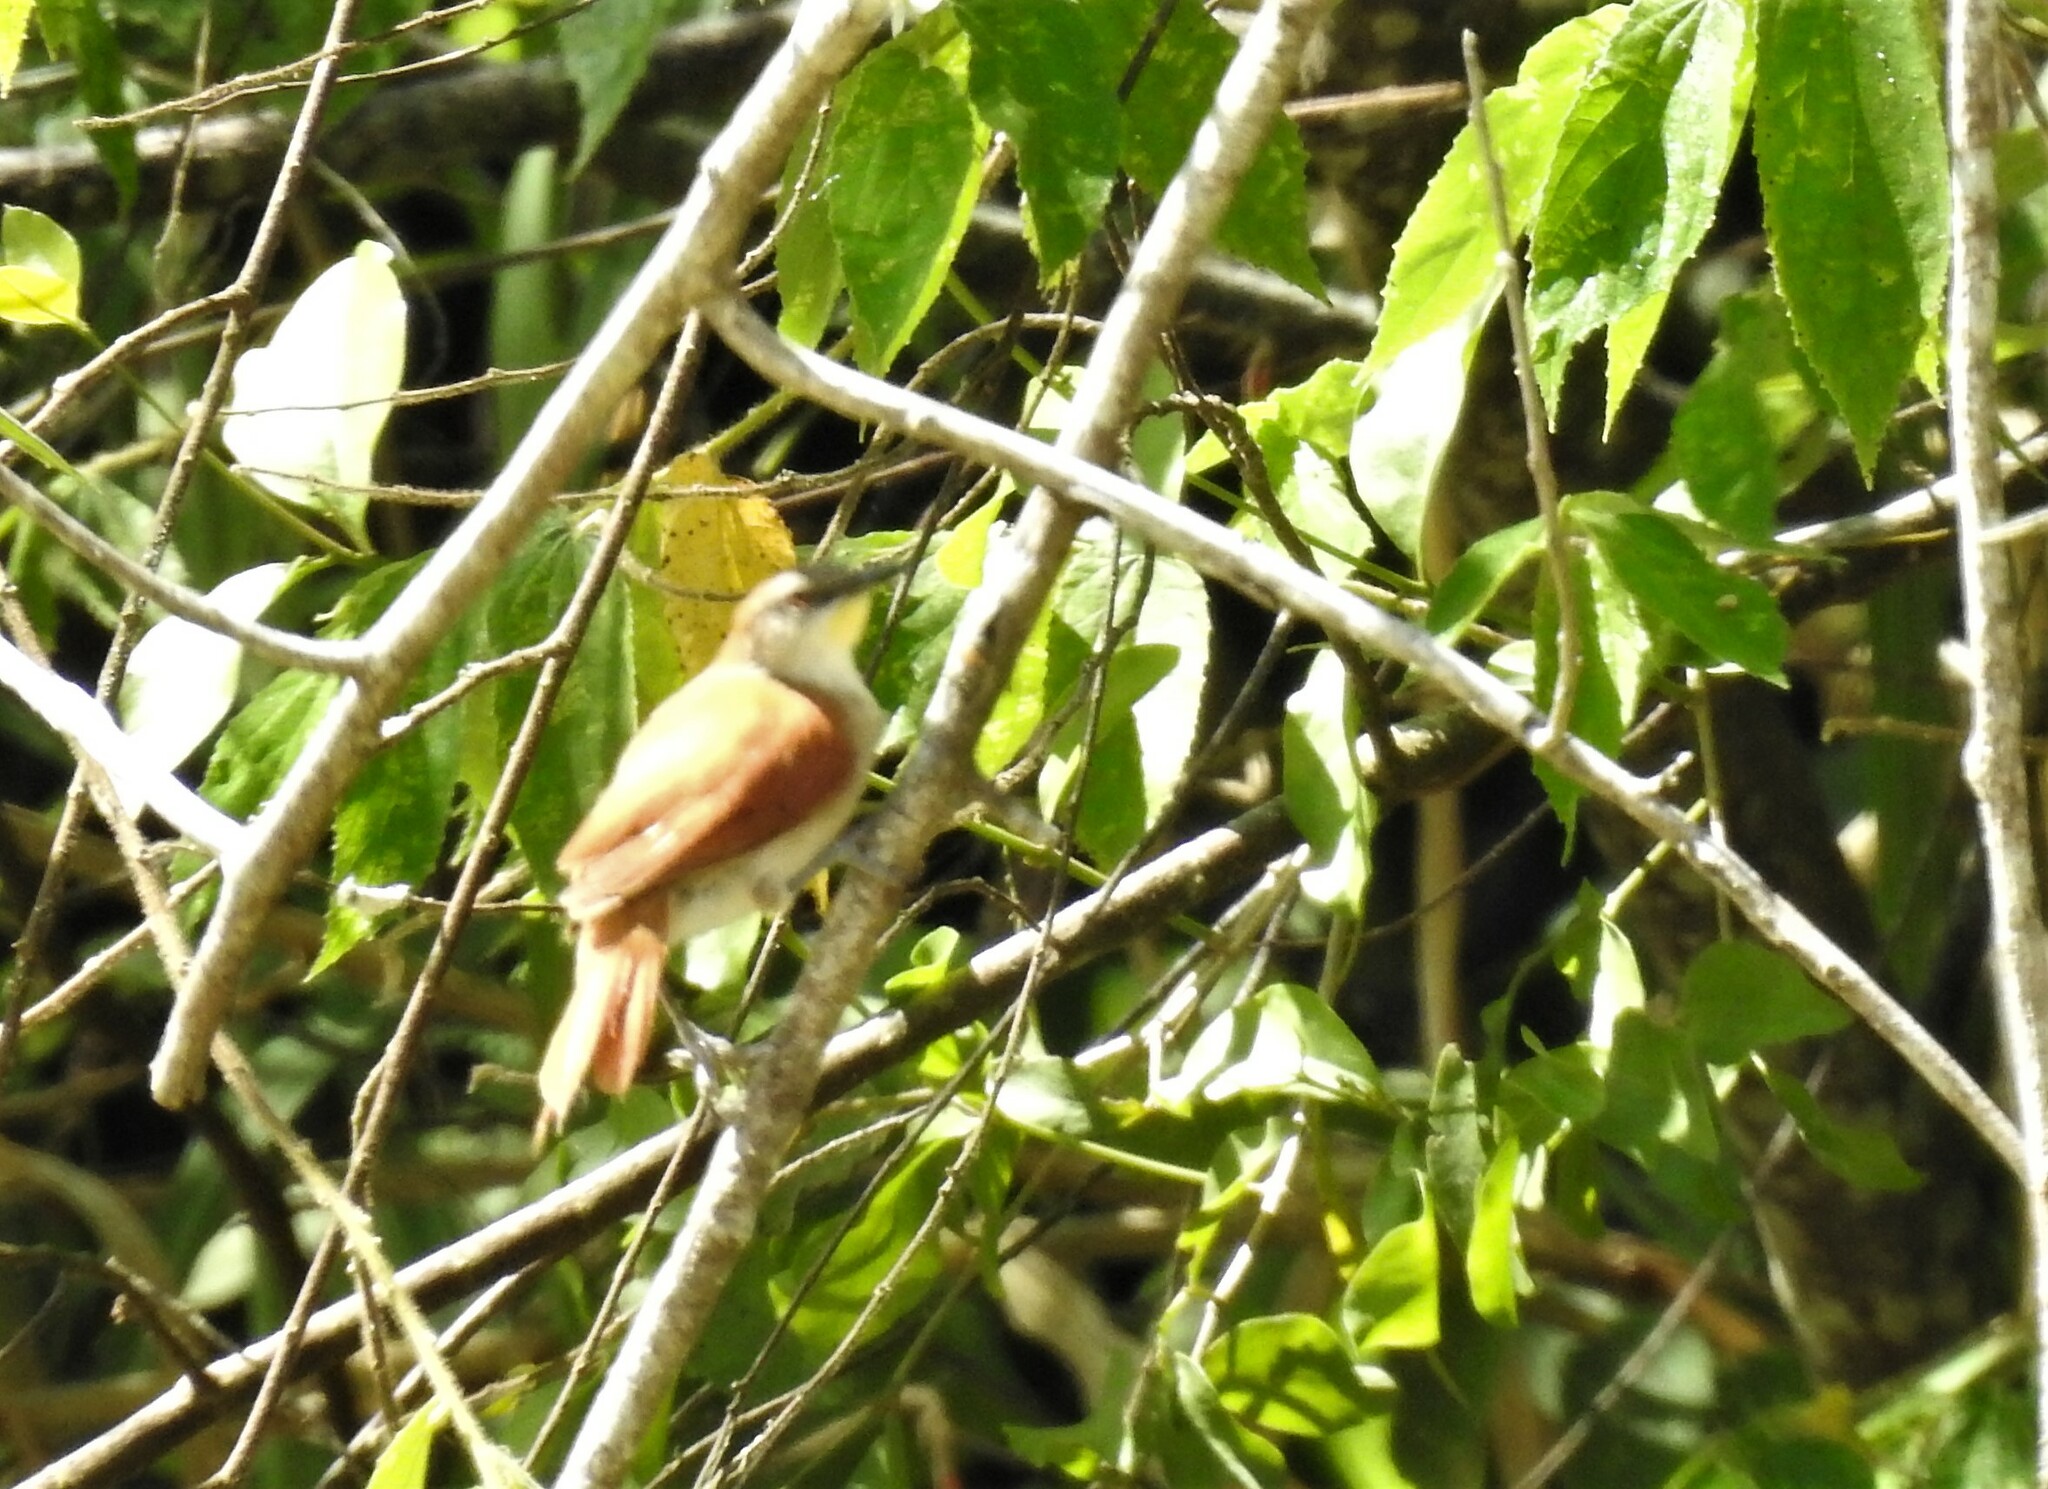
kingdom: Animalia
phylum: Chordata
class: Aves
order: Passeriformes
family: Furnariidae
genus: Certhiaxis
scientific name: Certhiaxis cinnamomeus
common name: Yellow-chinned spinetail
